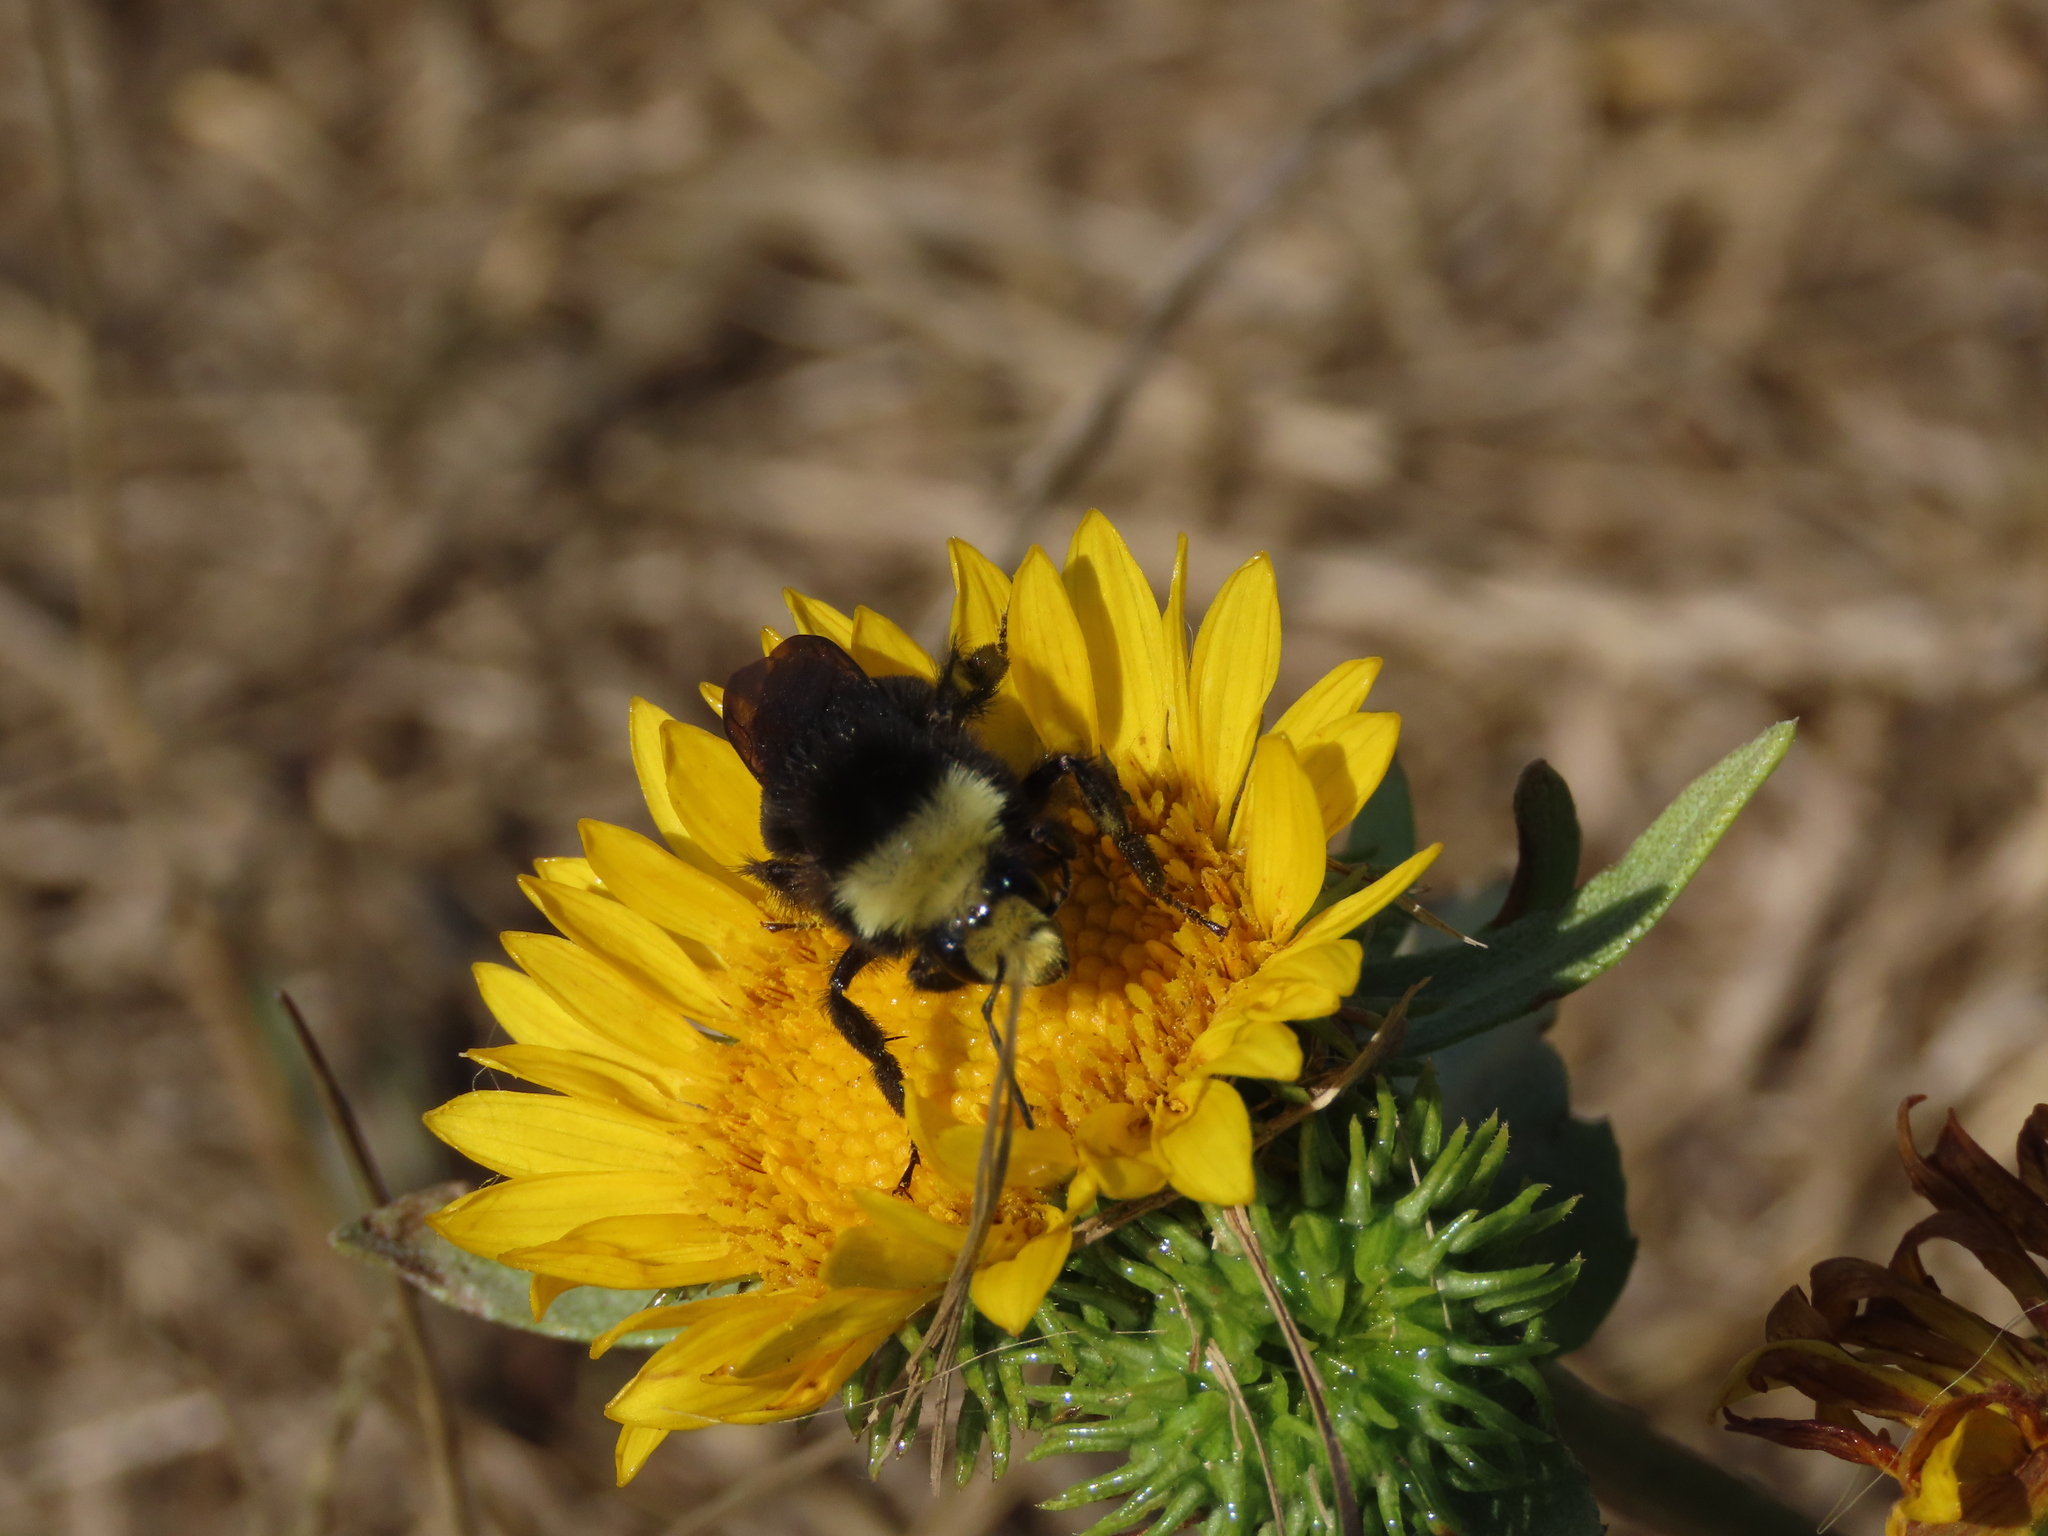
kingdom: Animalia
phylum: Arthropoda
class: Insecta
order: Hymenoptera
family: Apidae
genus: Bombus
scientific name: Bombus vosnesenskii
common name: Vosnesensky bumble bee
